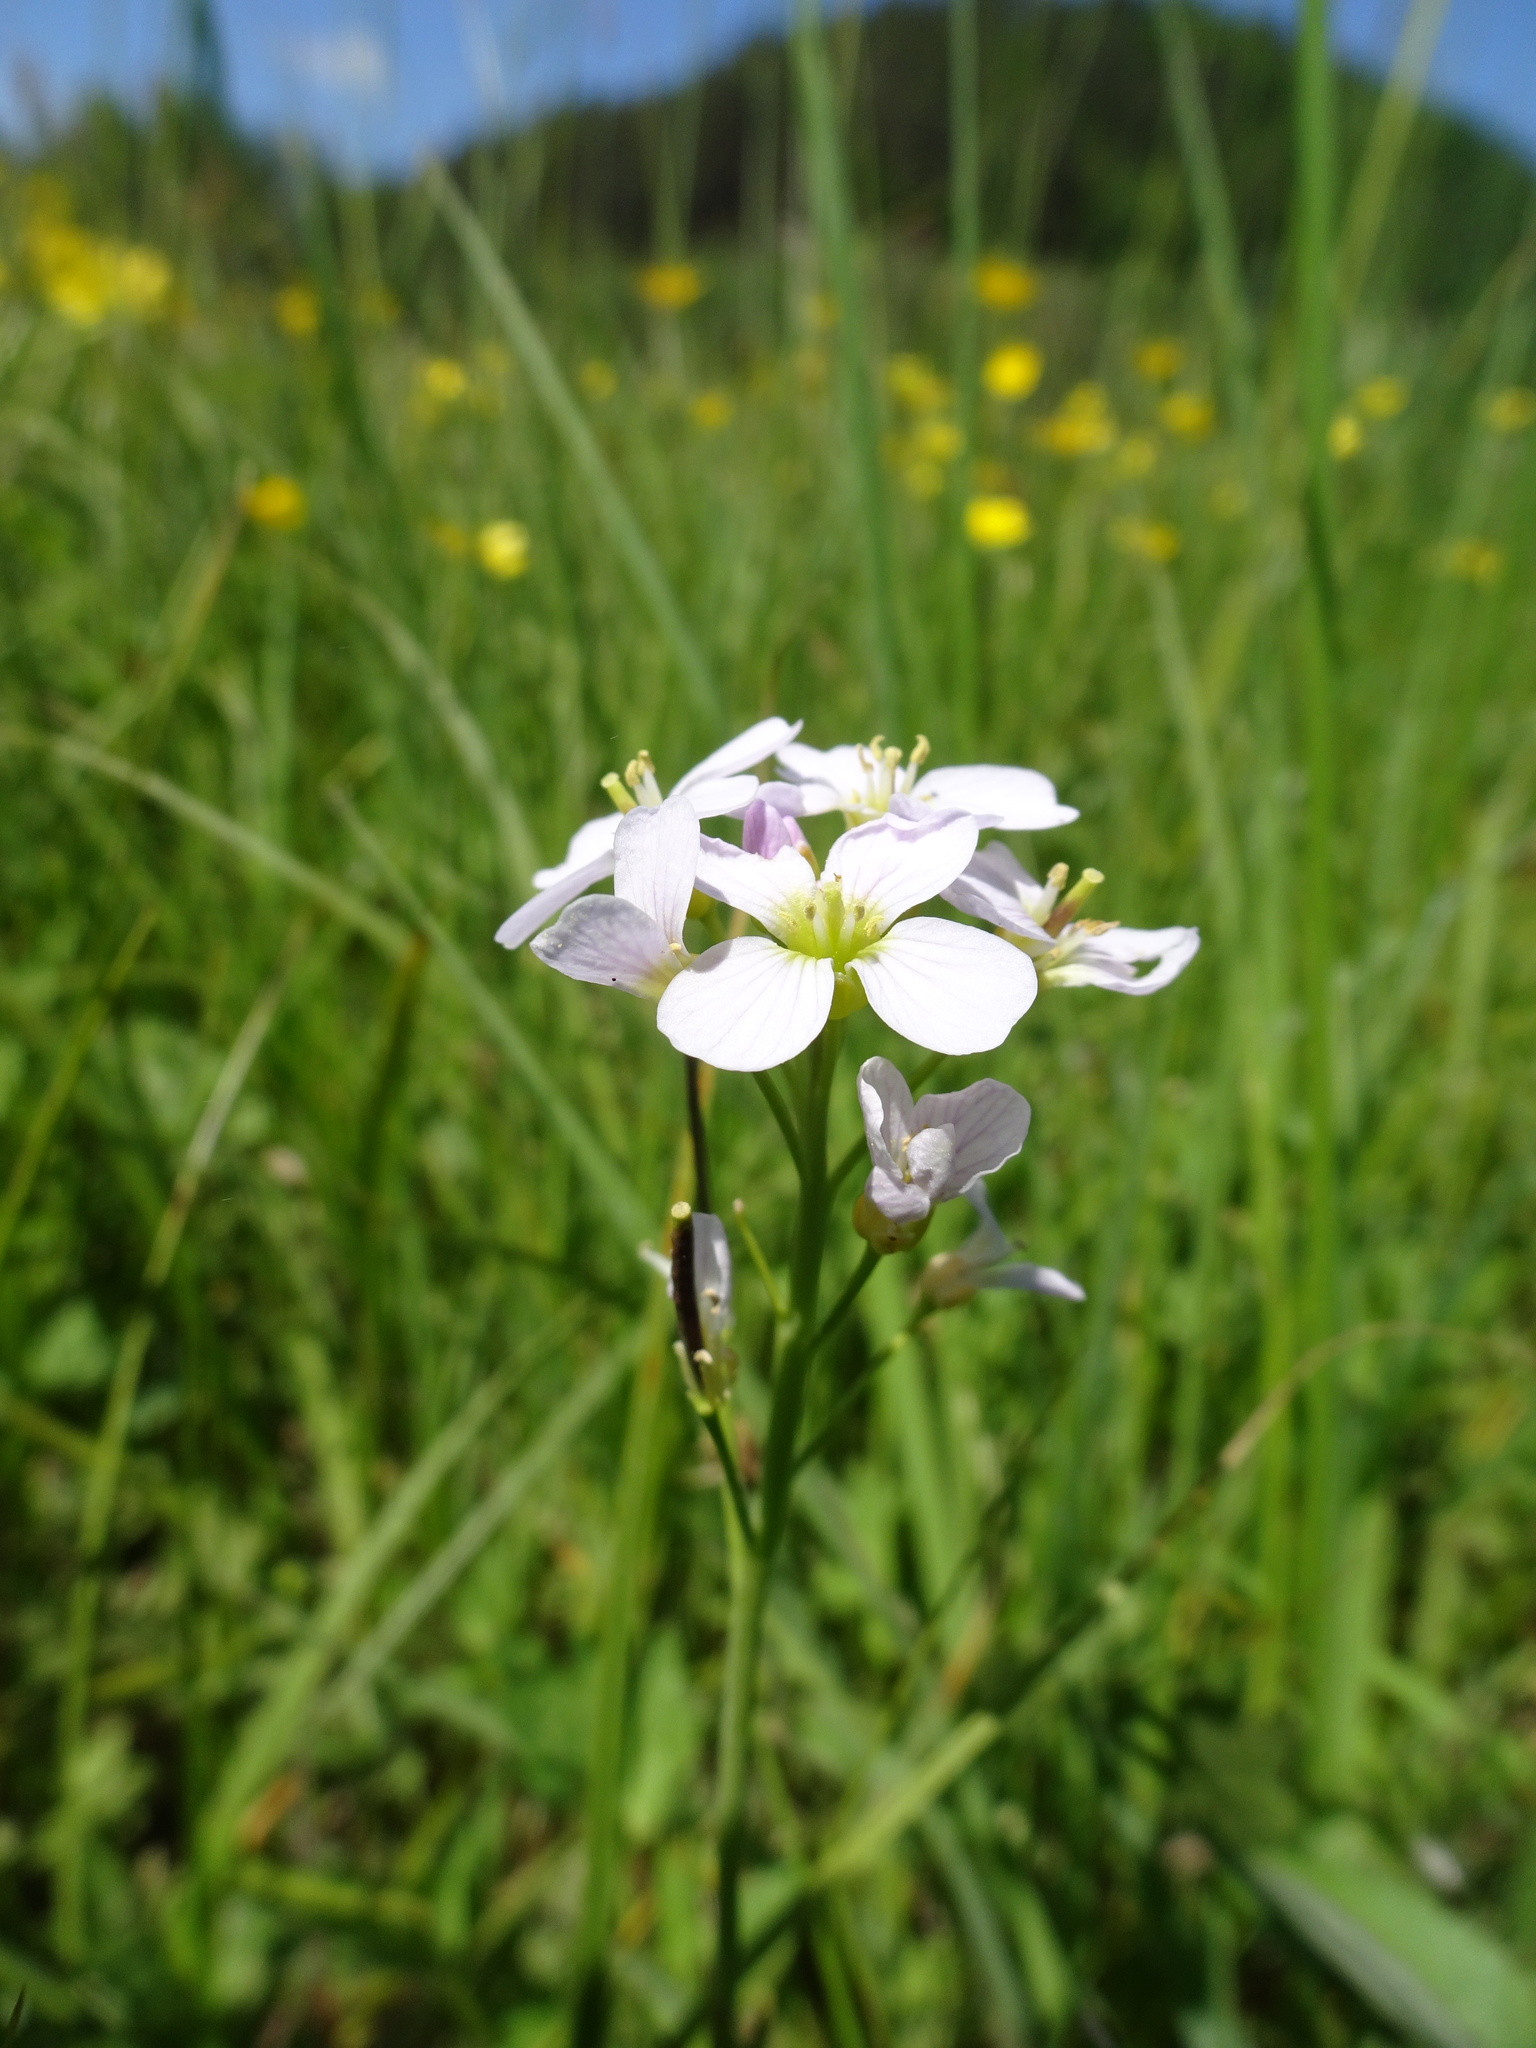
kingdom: Plantae
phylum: Tracheophyta
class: Magnoliopsida
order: Brassicales
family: Brassicaceae
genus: Cardamine
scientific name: Cardamine pratensis
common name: Cuckoo flower
